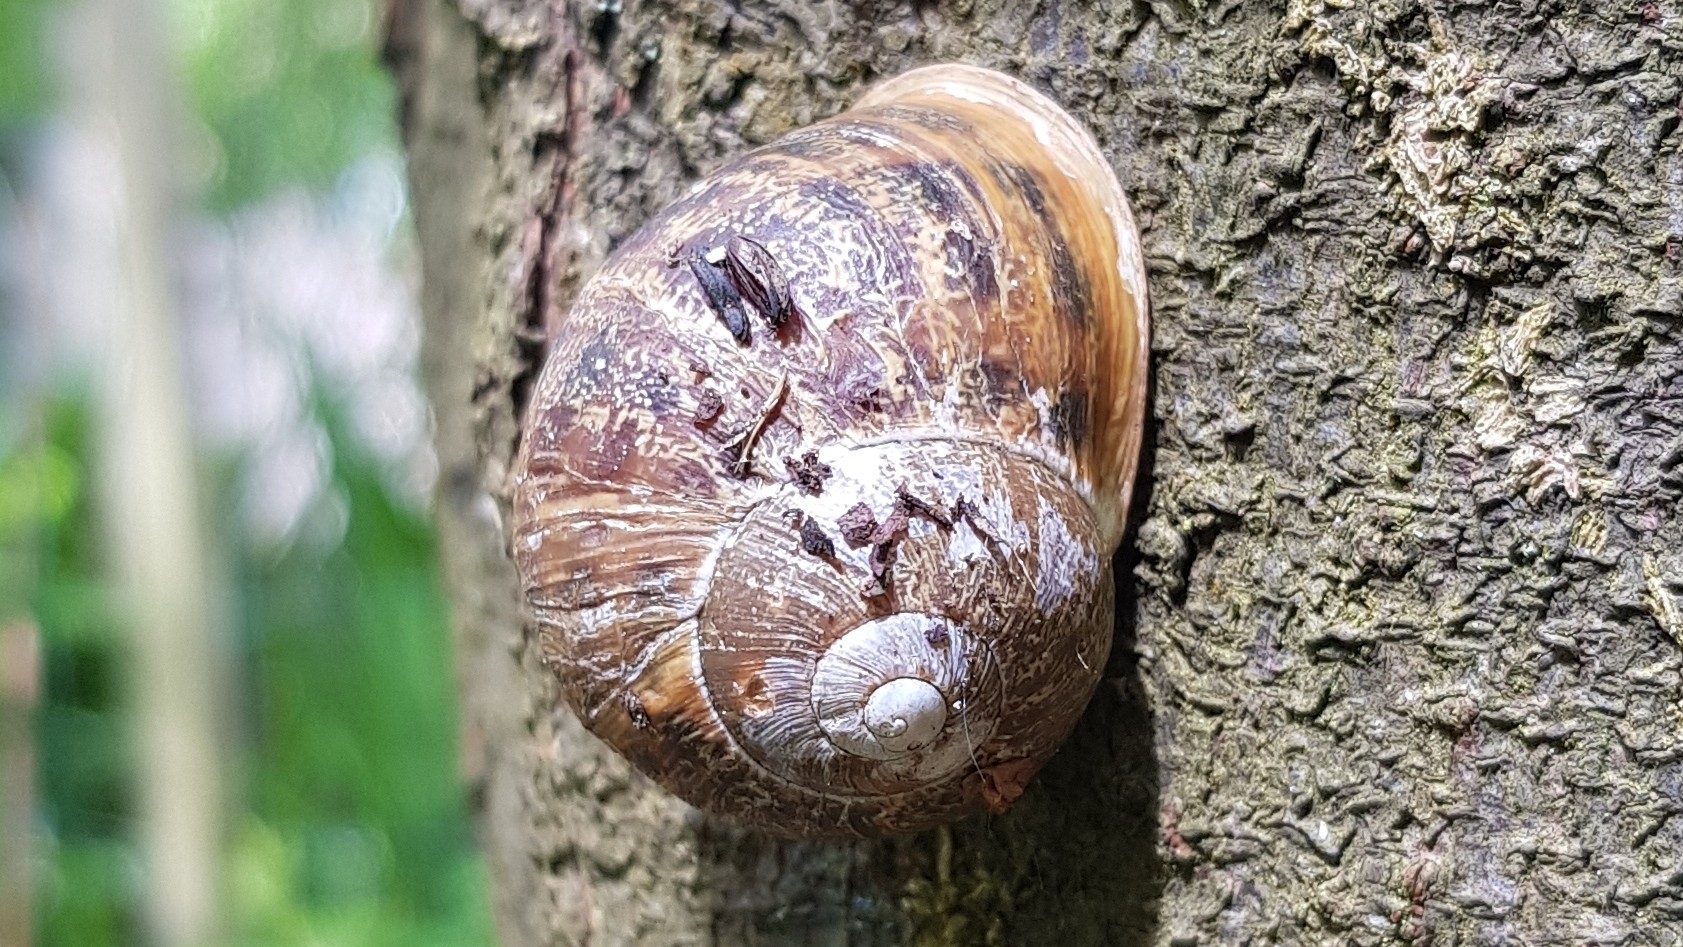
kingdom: Animalia
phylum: Mollusca
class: Gastropoda
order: Stylommatophora
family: Helicidae
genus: Cornu
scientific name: Cornu aspersum
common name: Brown garden snail
